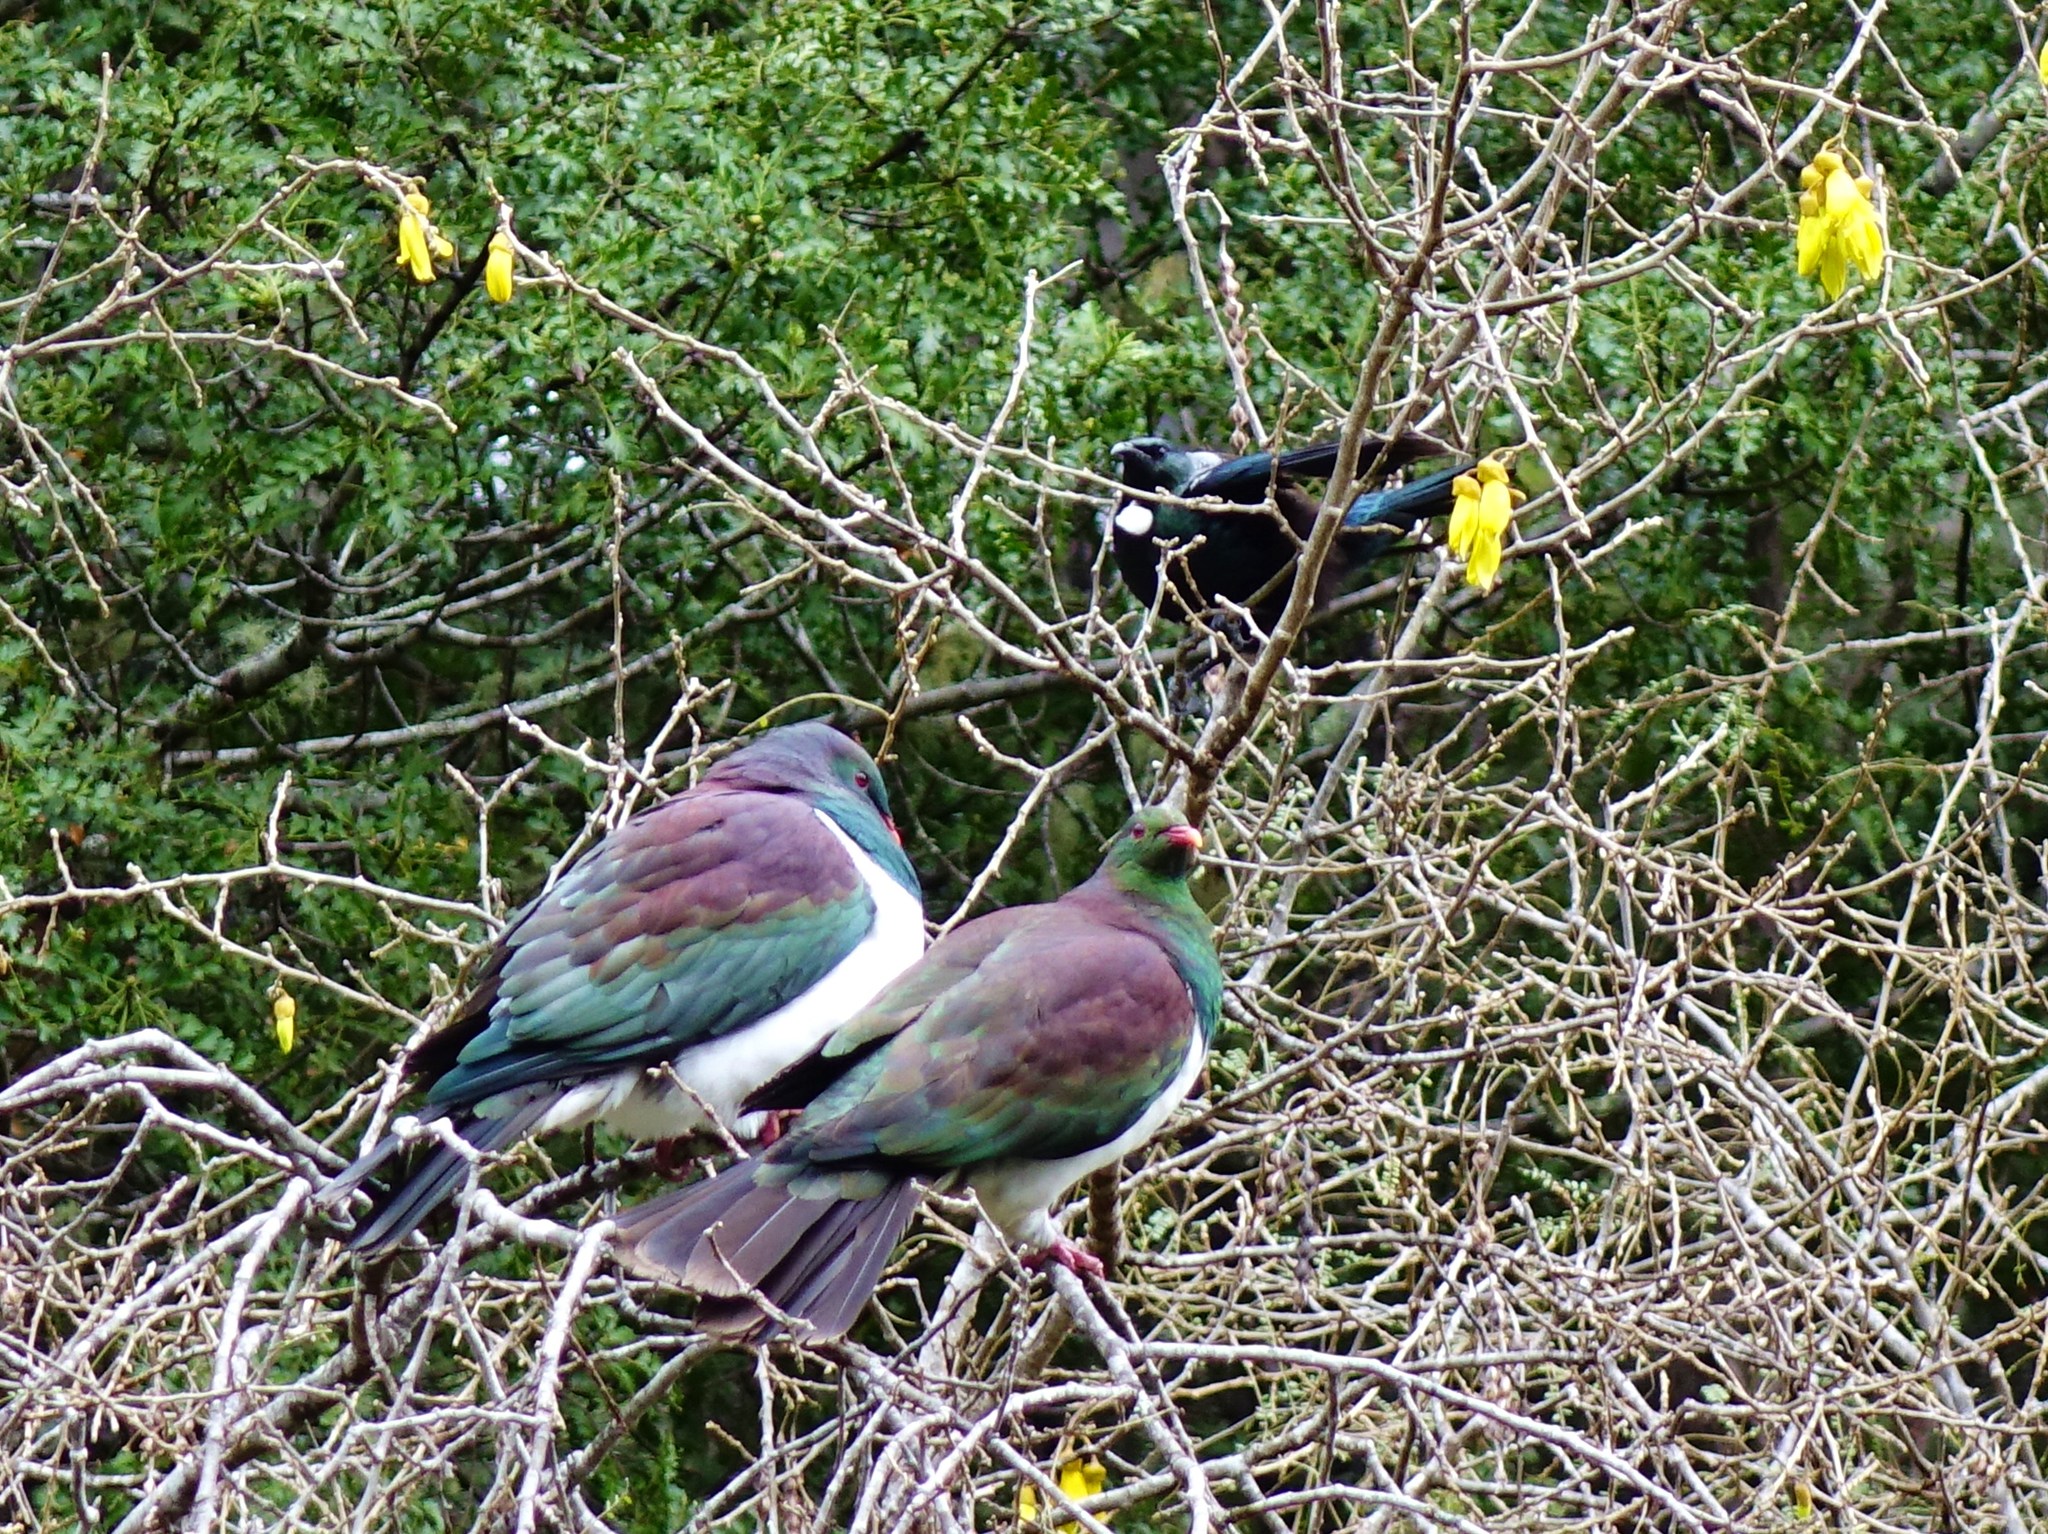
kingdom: Animalia
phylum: Chordata
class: Aves
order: Columbiformes
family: Columbidae
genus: Hemiphaga
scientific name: Hemiphaga novaeseelandiae
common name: New zealand pigeon
